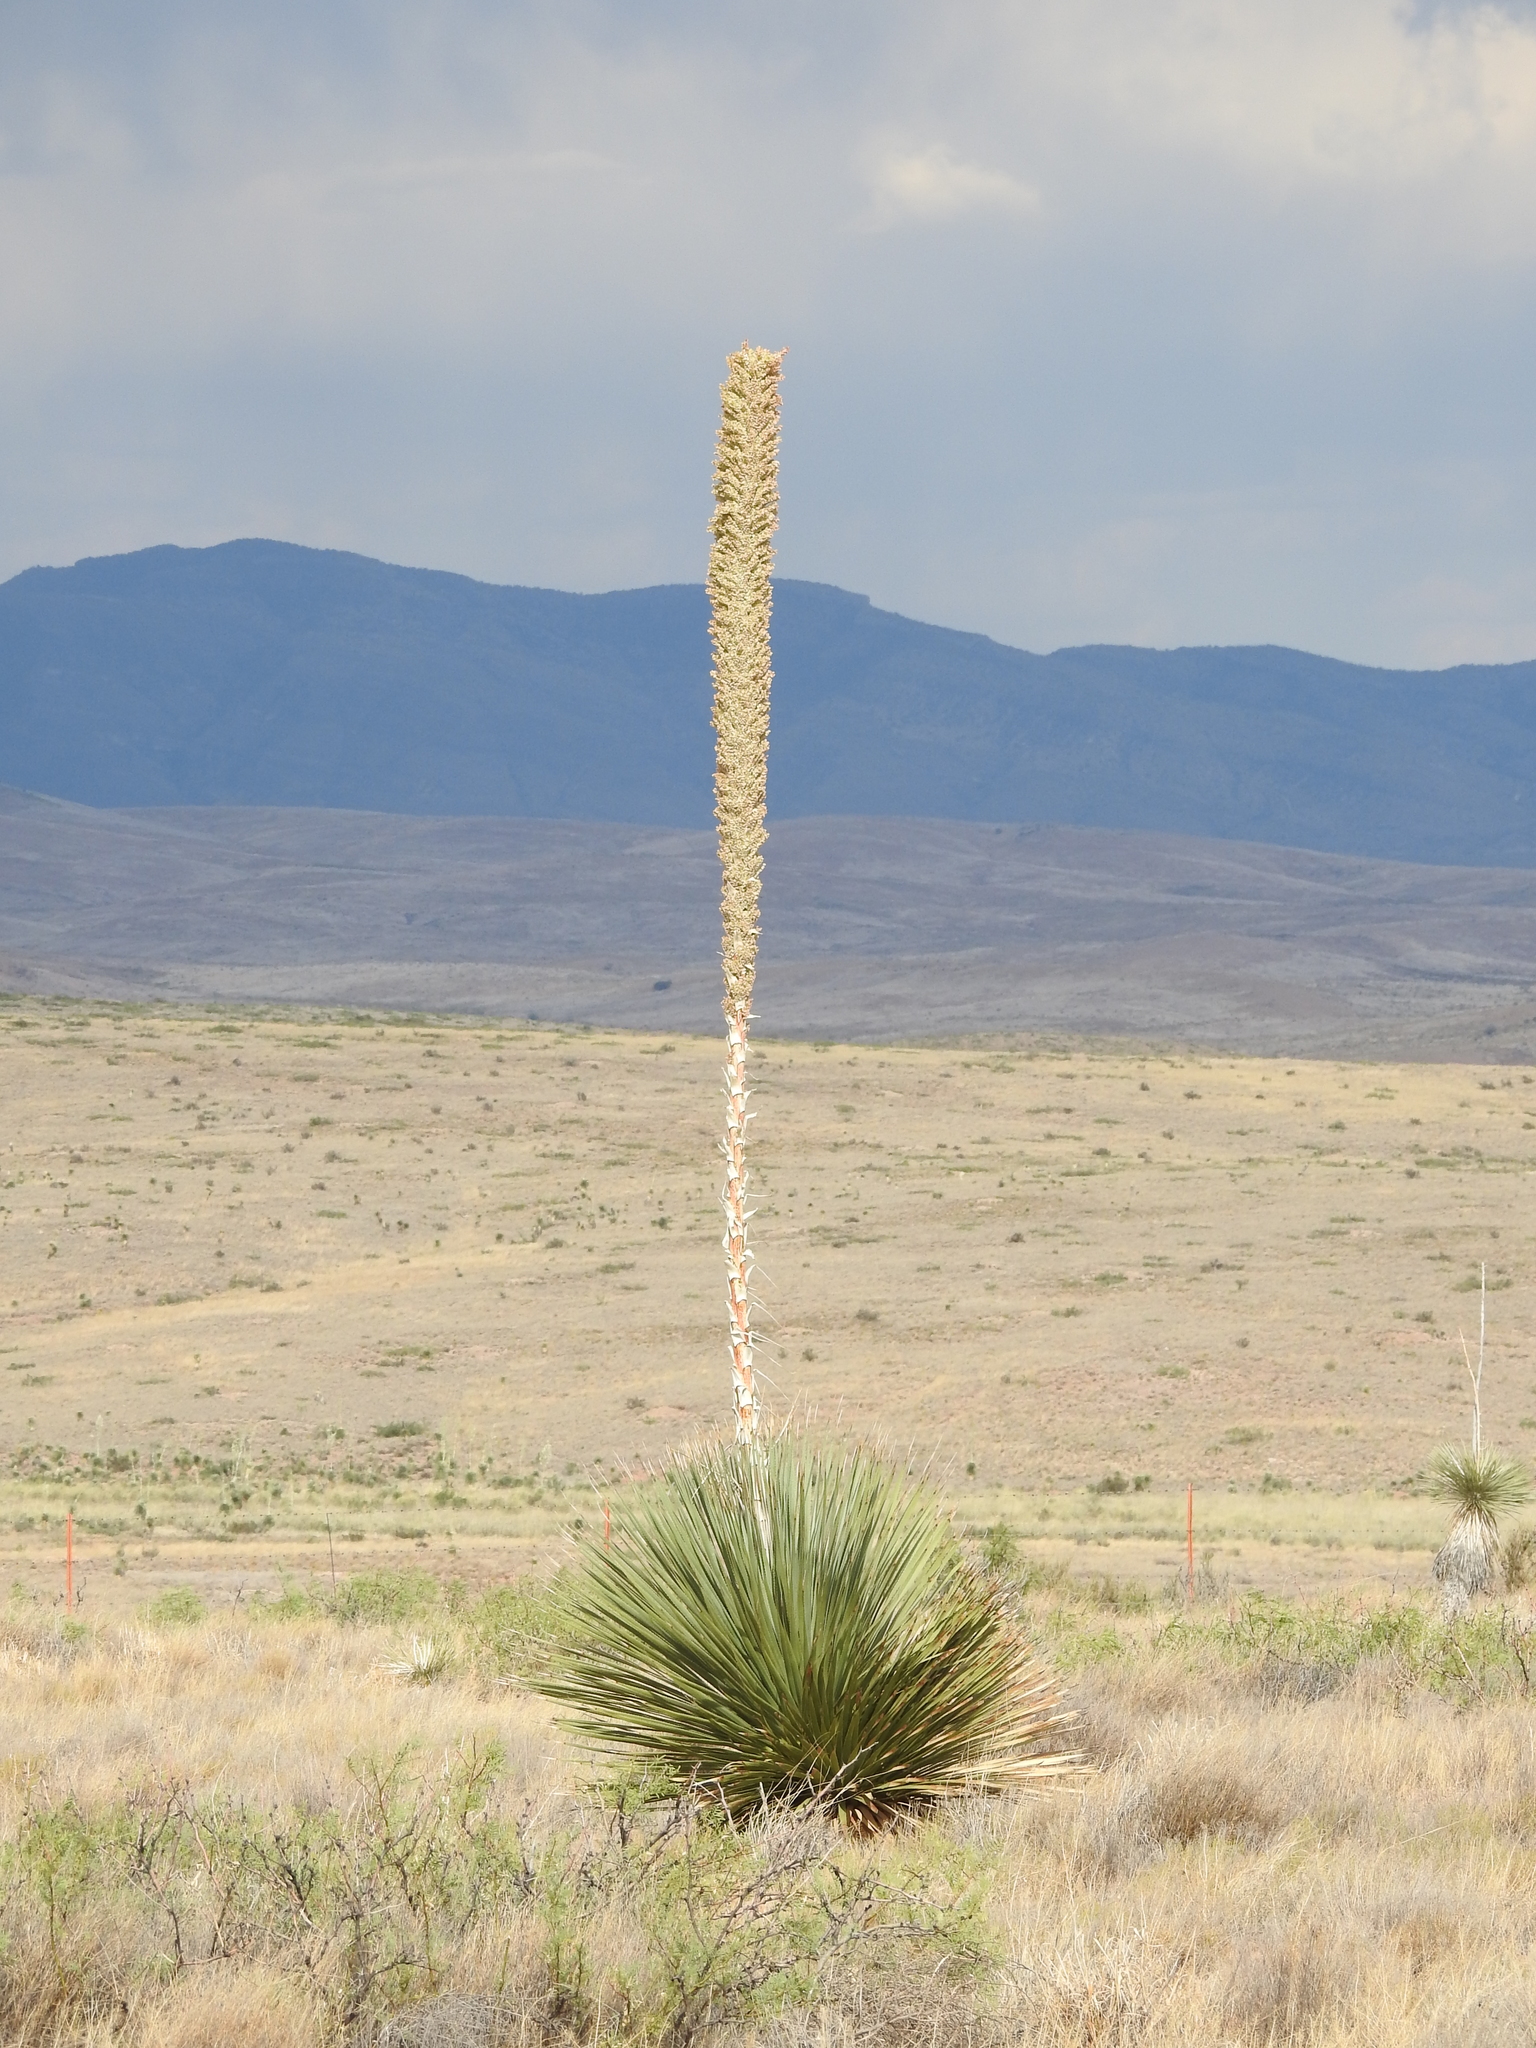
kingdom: Plantae
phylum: Tracheophyta
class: Liliopsida
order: Asparagales
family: Asparagaceae
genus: Dasylirion
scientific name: Dasylirion wheeleri
